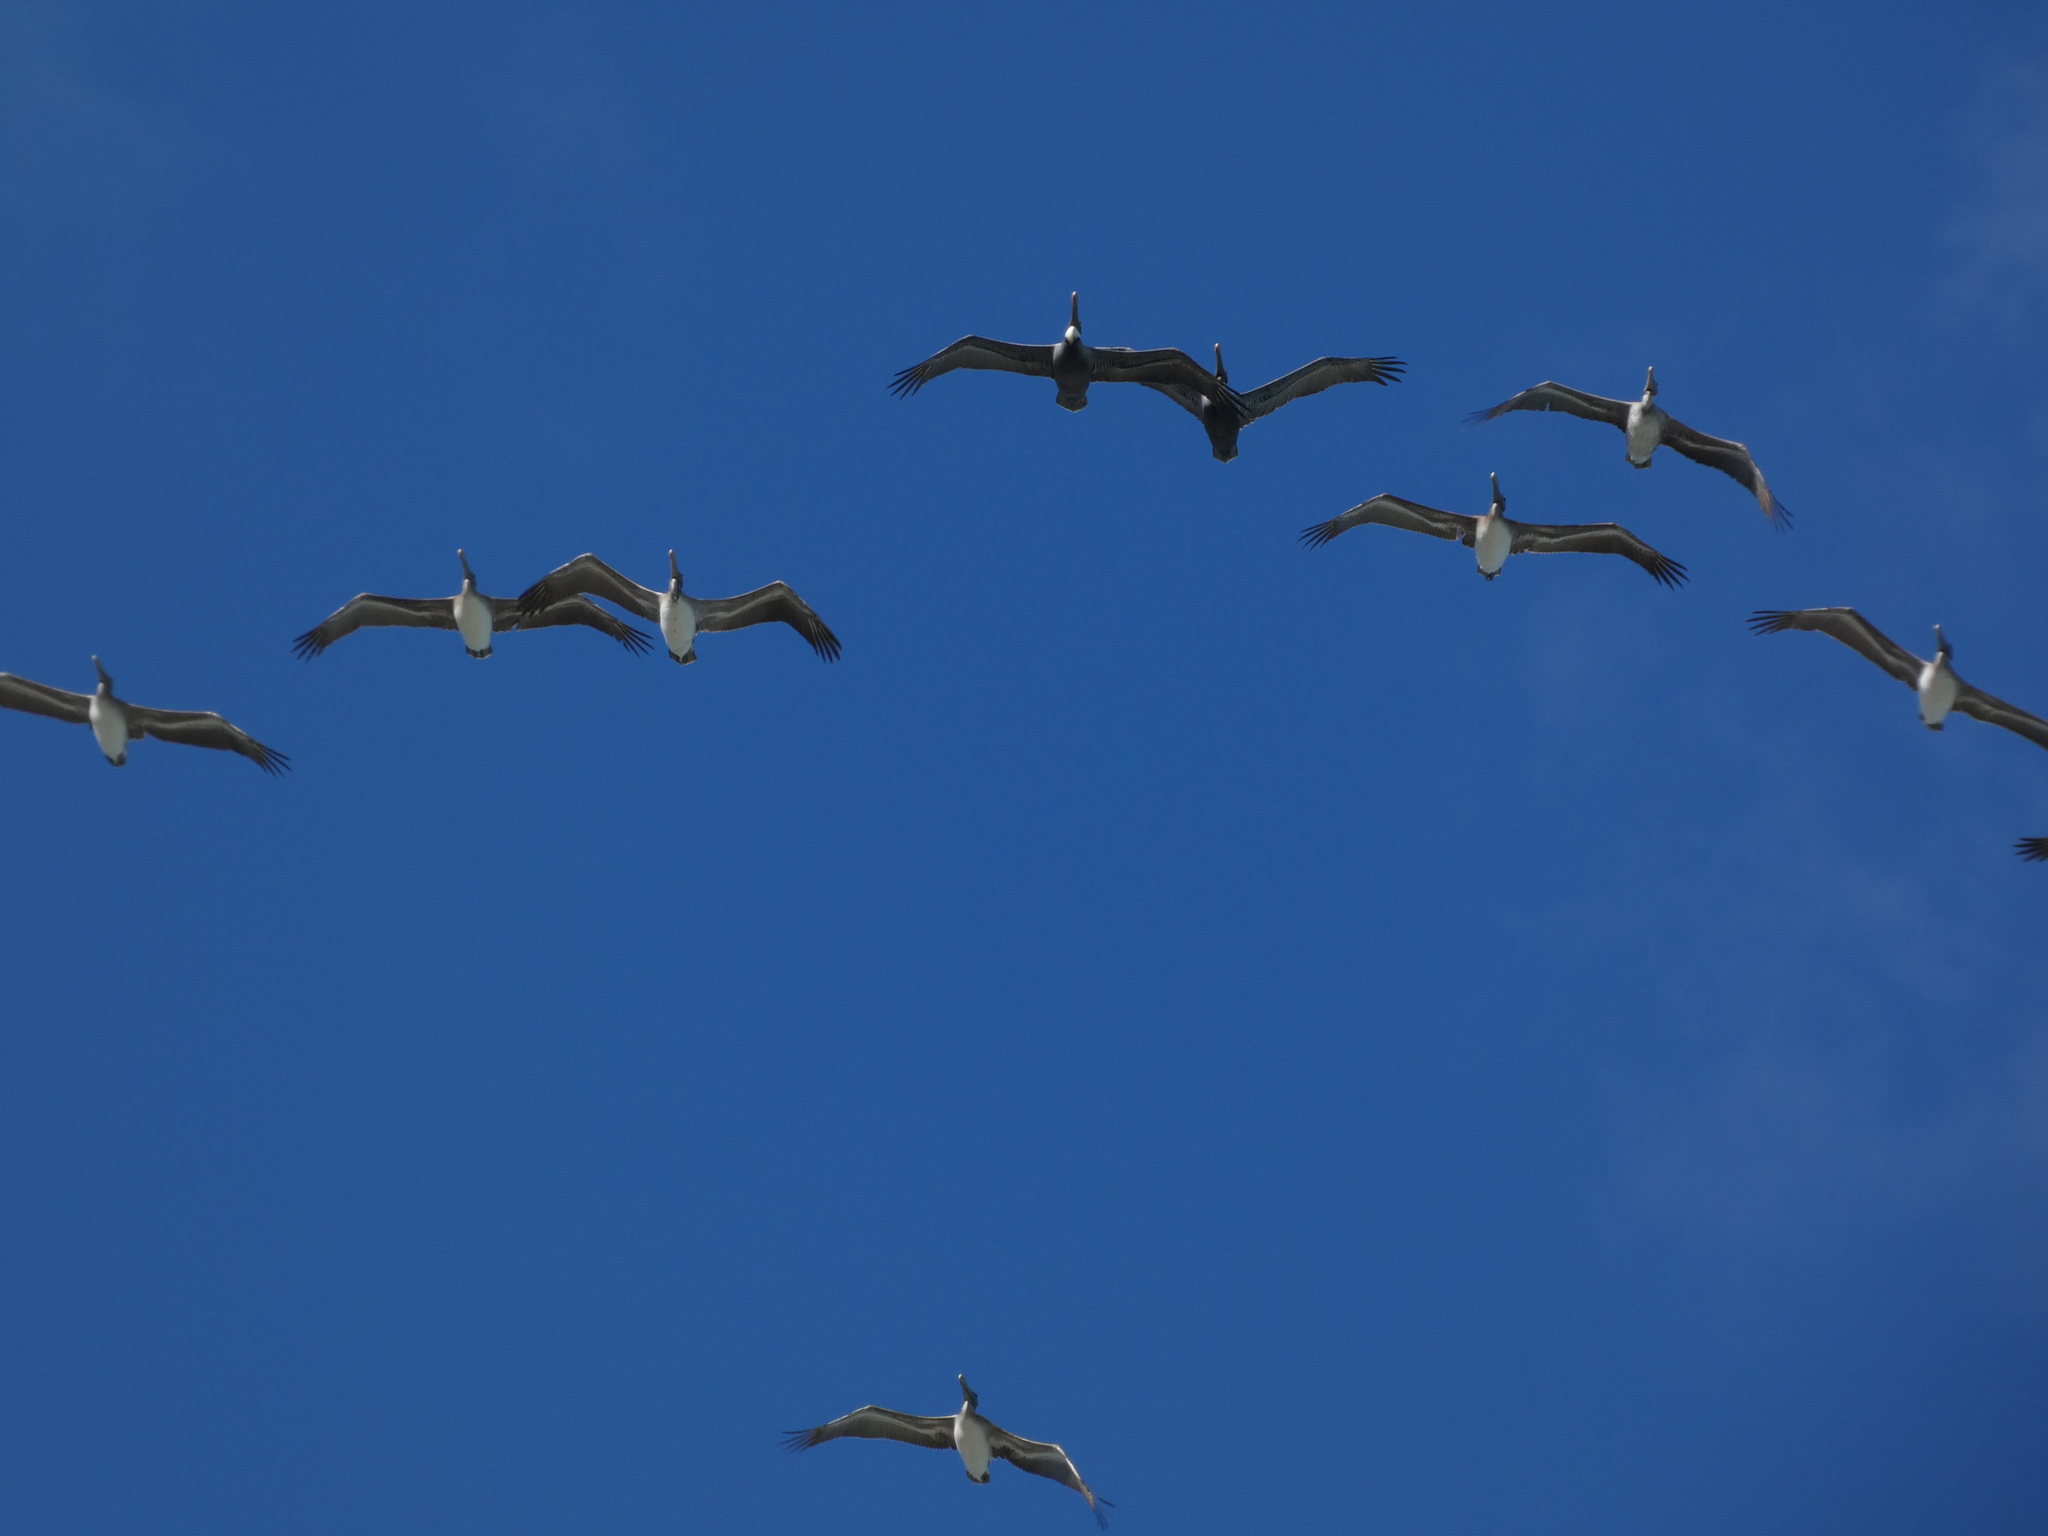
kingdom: Animalia
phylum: Chordata
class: Aves
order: Pelecaniformes
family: Pelecanidae
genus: Pelecanus
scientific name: Pelecanus occidentalis
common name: Brown pelican
